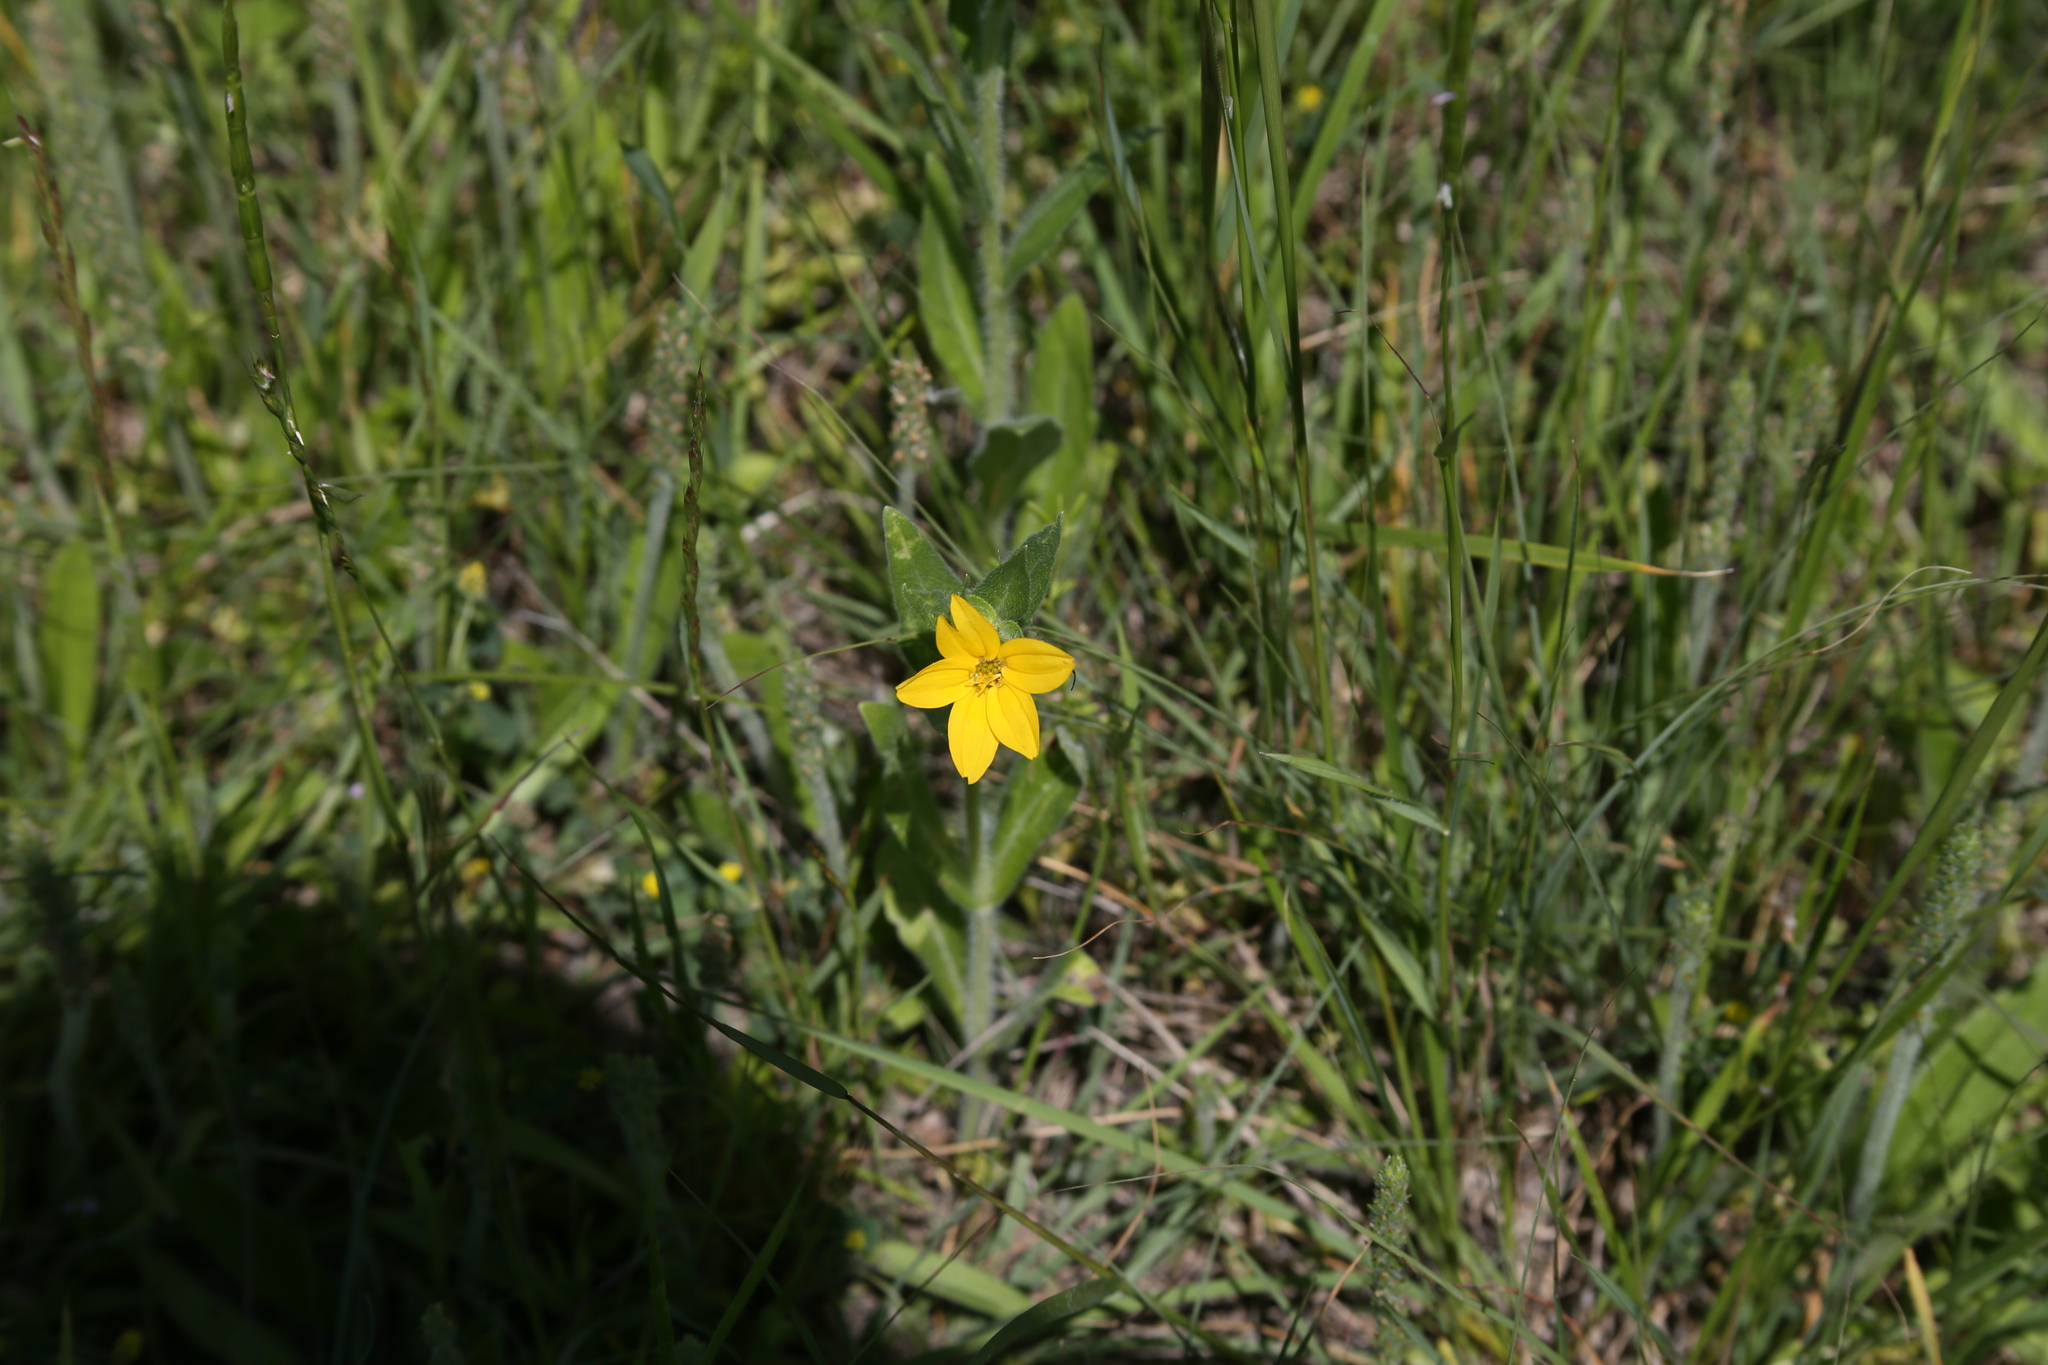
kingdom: Plantae
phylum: Tracheophyta
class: Magnoliopsida
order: Asterales
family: Asteraceae
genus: Lindheimera
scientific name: Lindheimera texana
